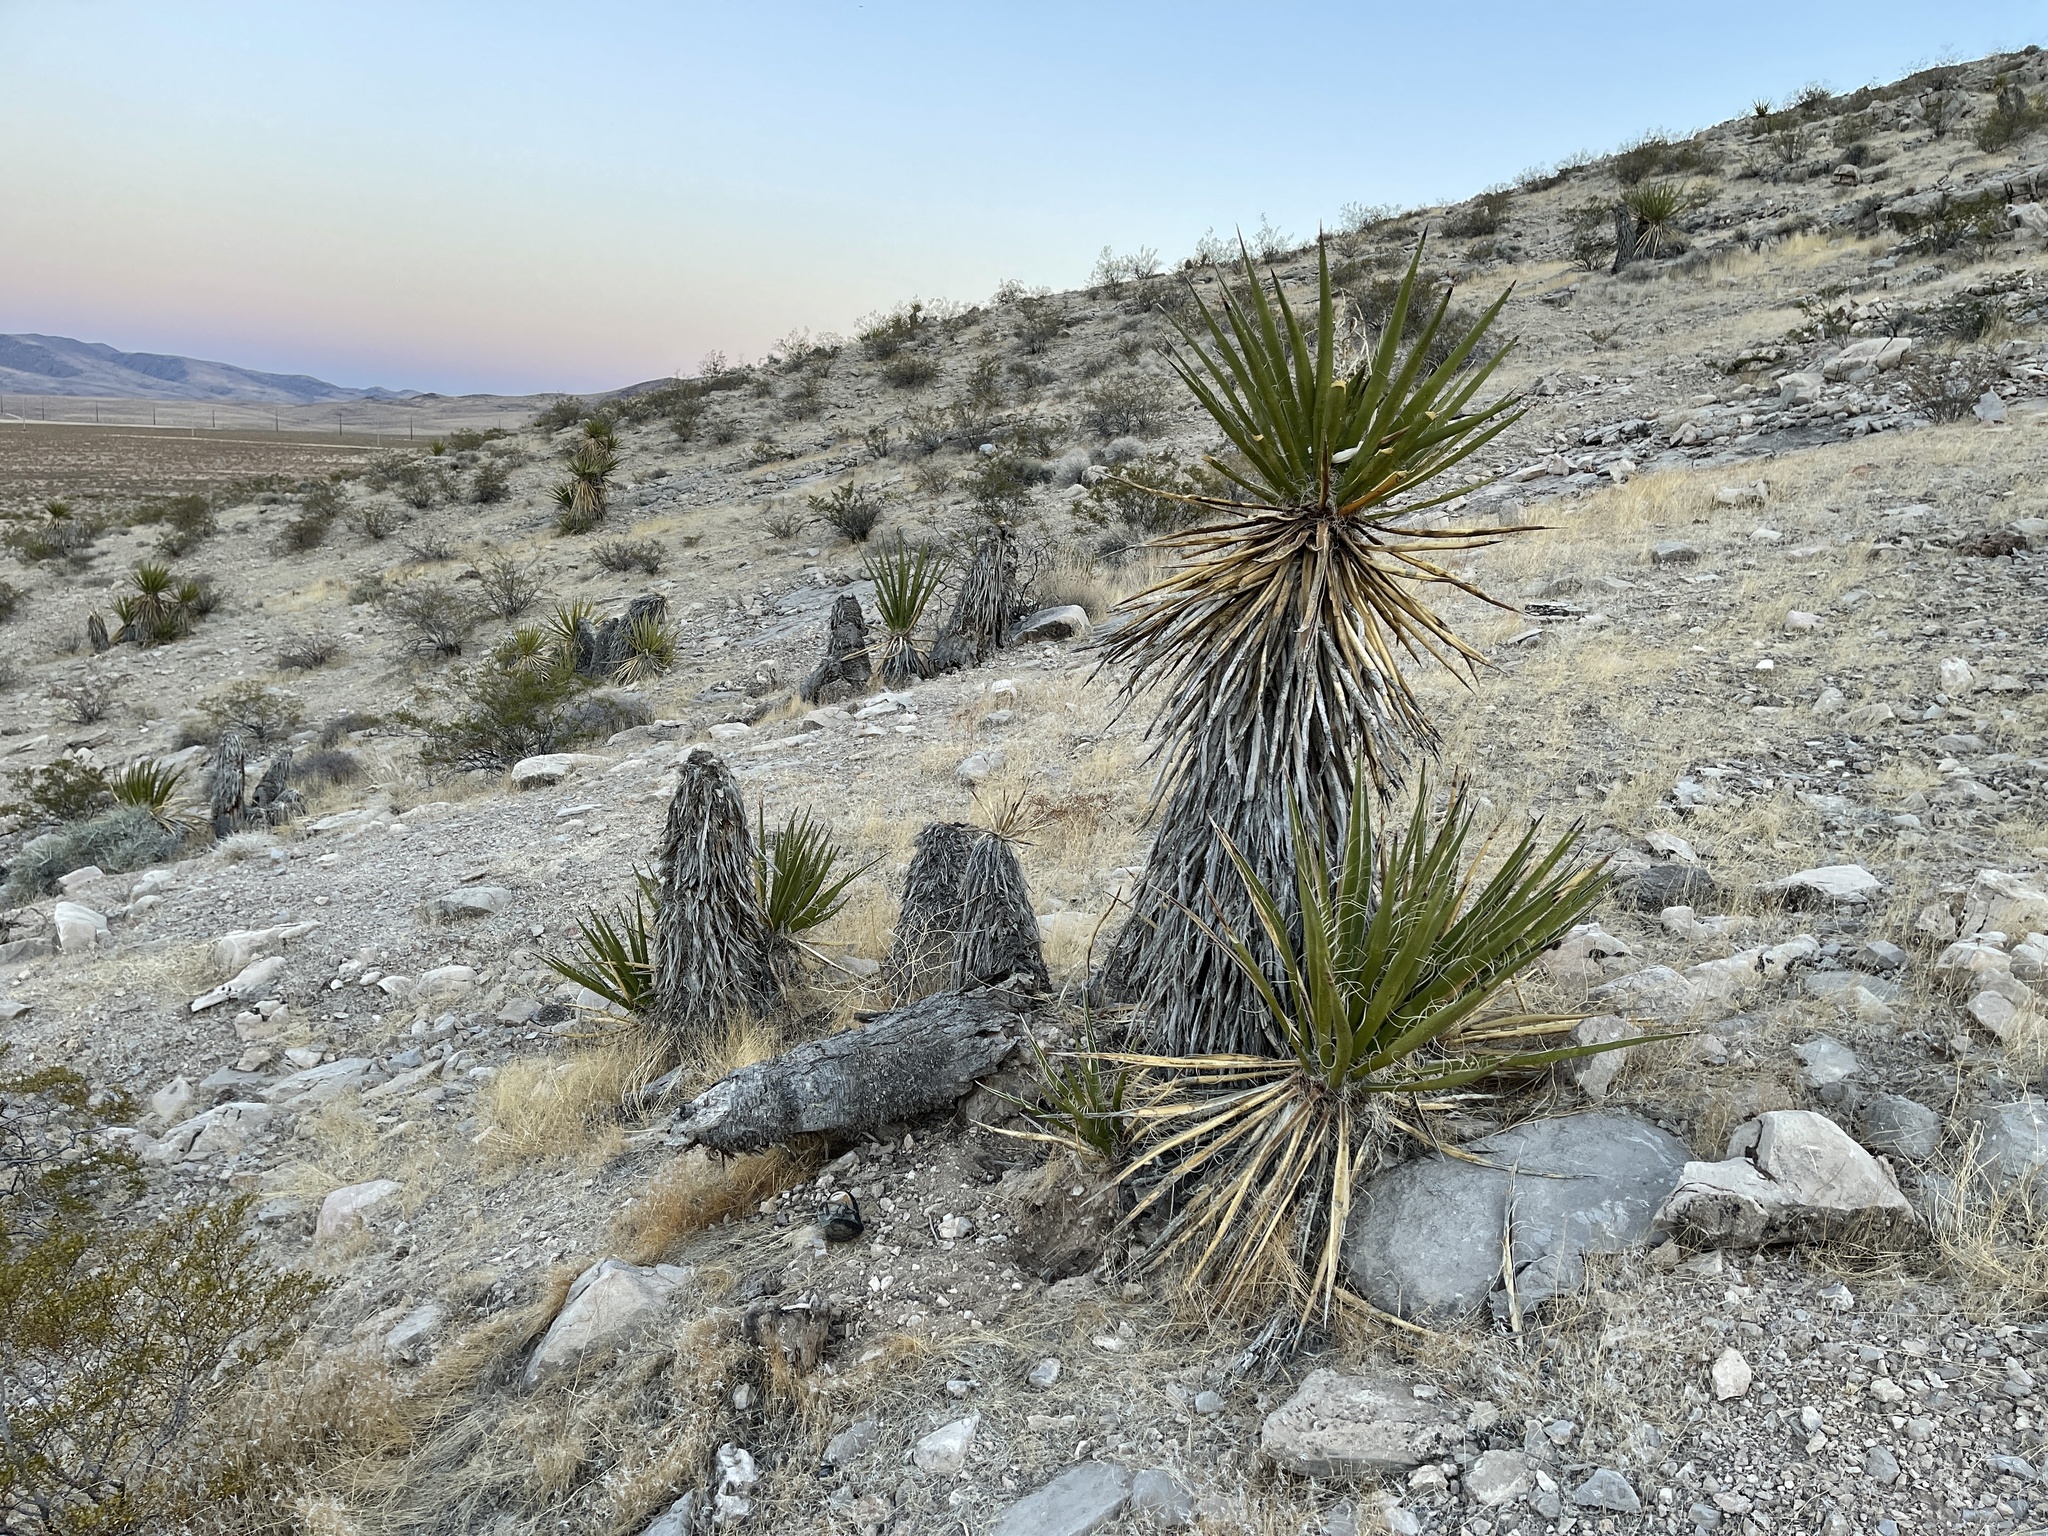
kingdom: Plantae
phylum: Tracheophyta
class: Liliopsida
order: Asparagales
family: Asparagaceae
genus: Yucca
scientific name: Yucca schidigera
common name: Mojave yucca
